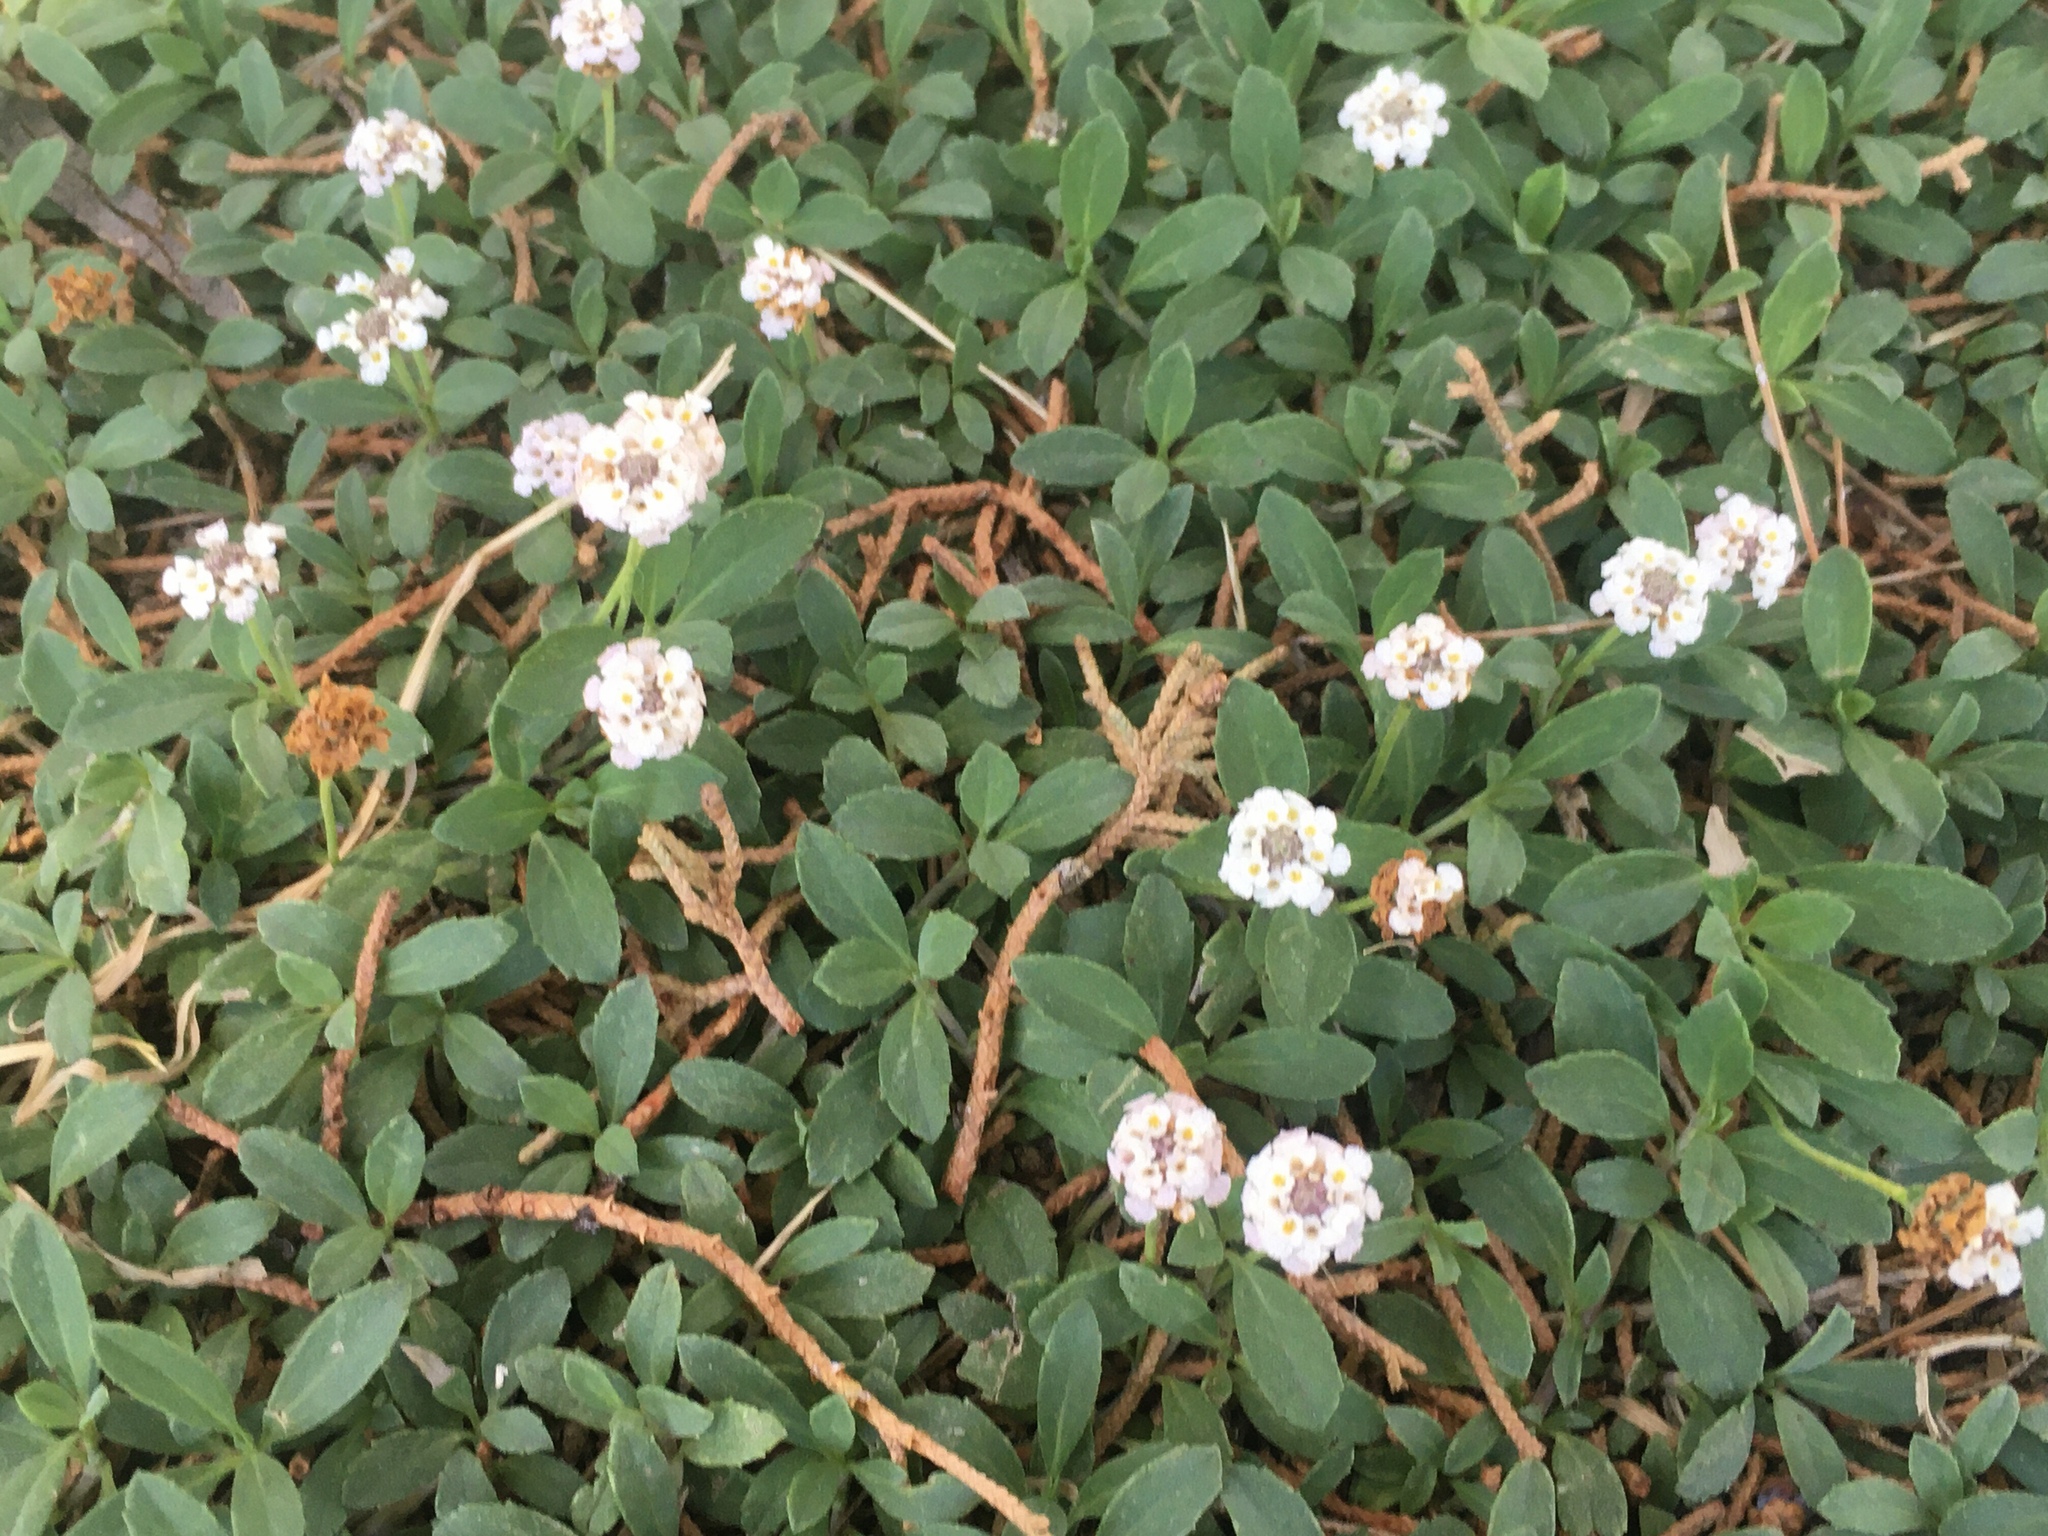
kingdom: Plantae
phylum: Tracheophyta
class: Magnoliopsida
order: Lamiales
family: Verbenaceae
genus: Phyla
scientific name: Phyla nodiflora
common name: Frogfruit
